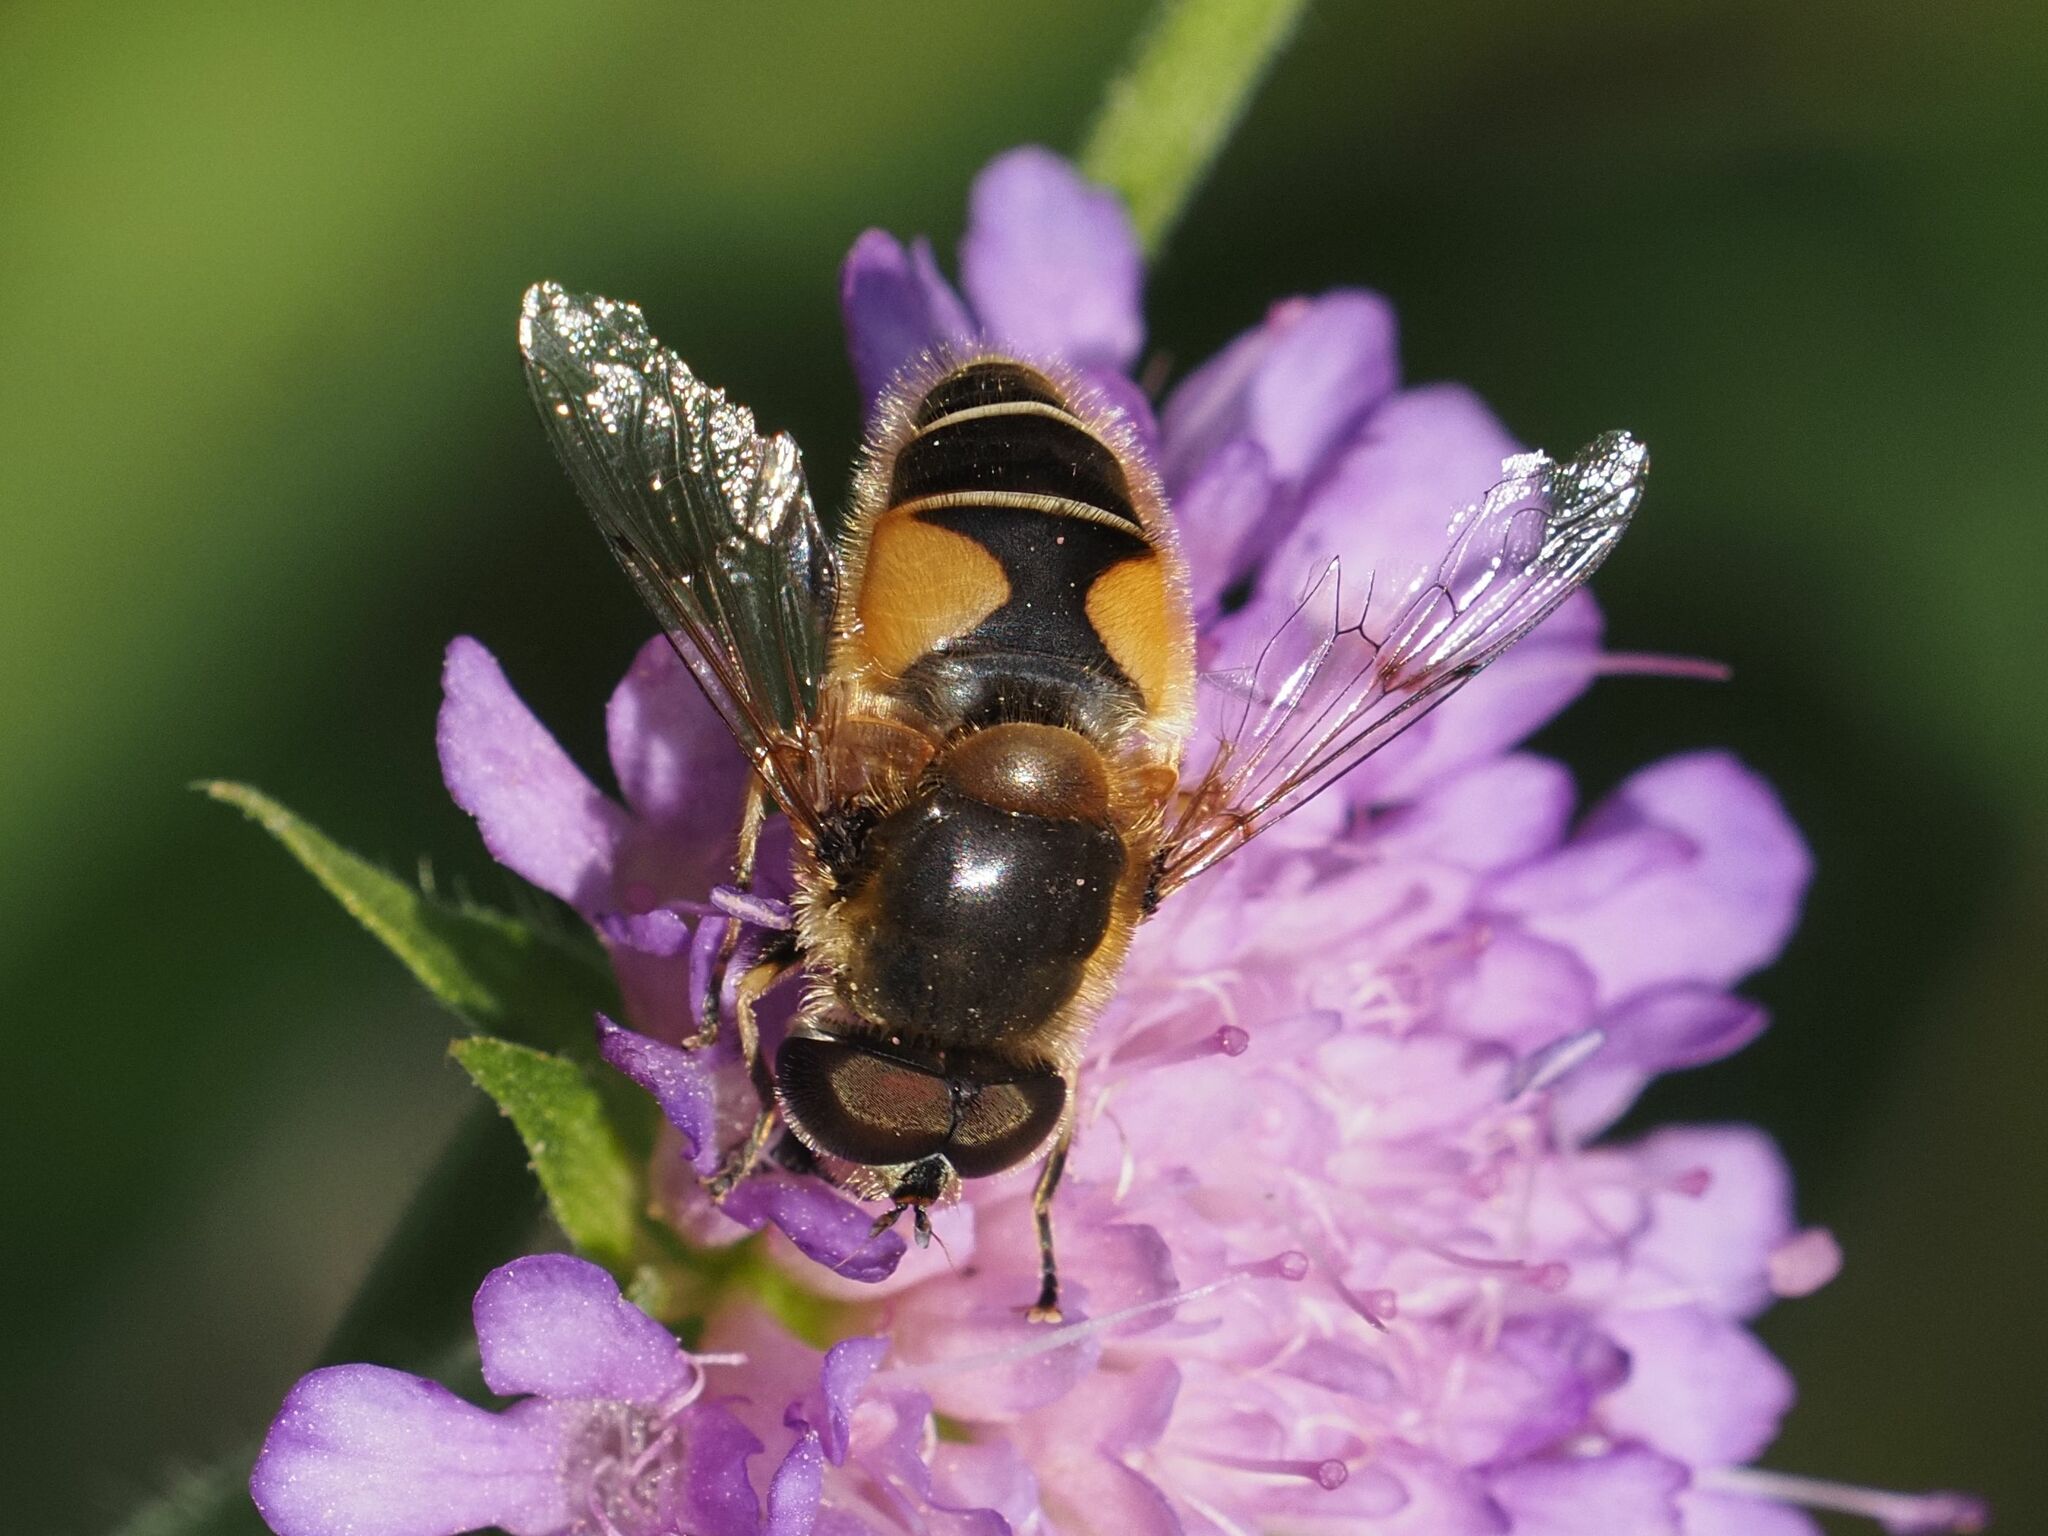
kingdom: Animalia
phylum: Arthropoda
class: Insecta
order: Diptera
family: Syrphidae
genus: Eristalis
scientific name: Eristalis jugorum
